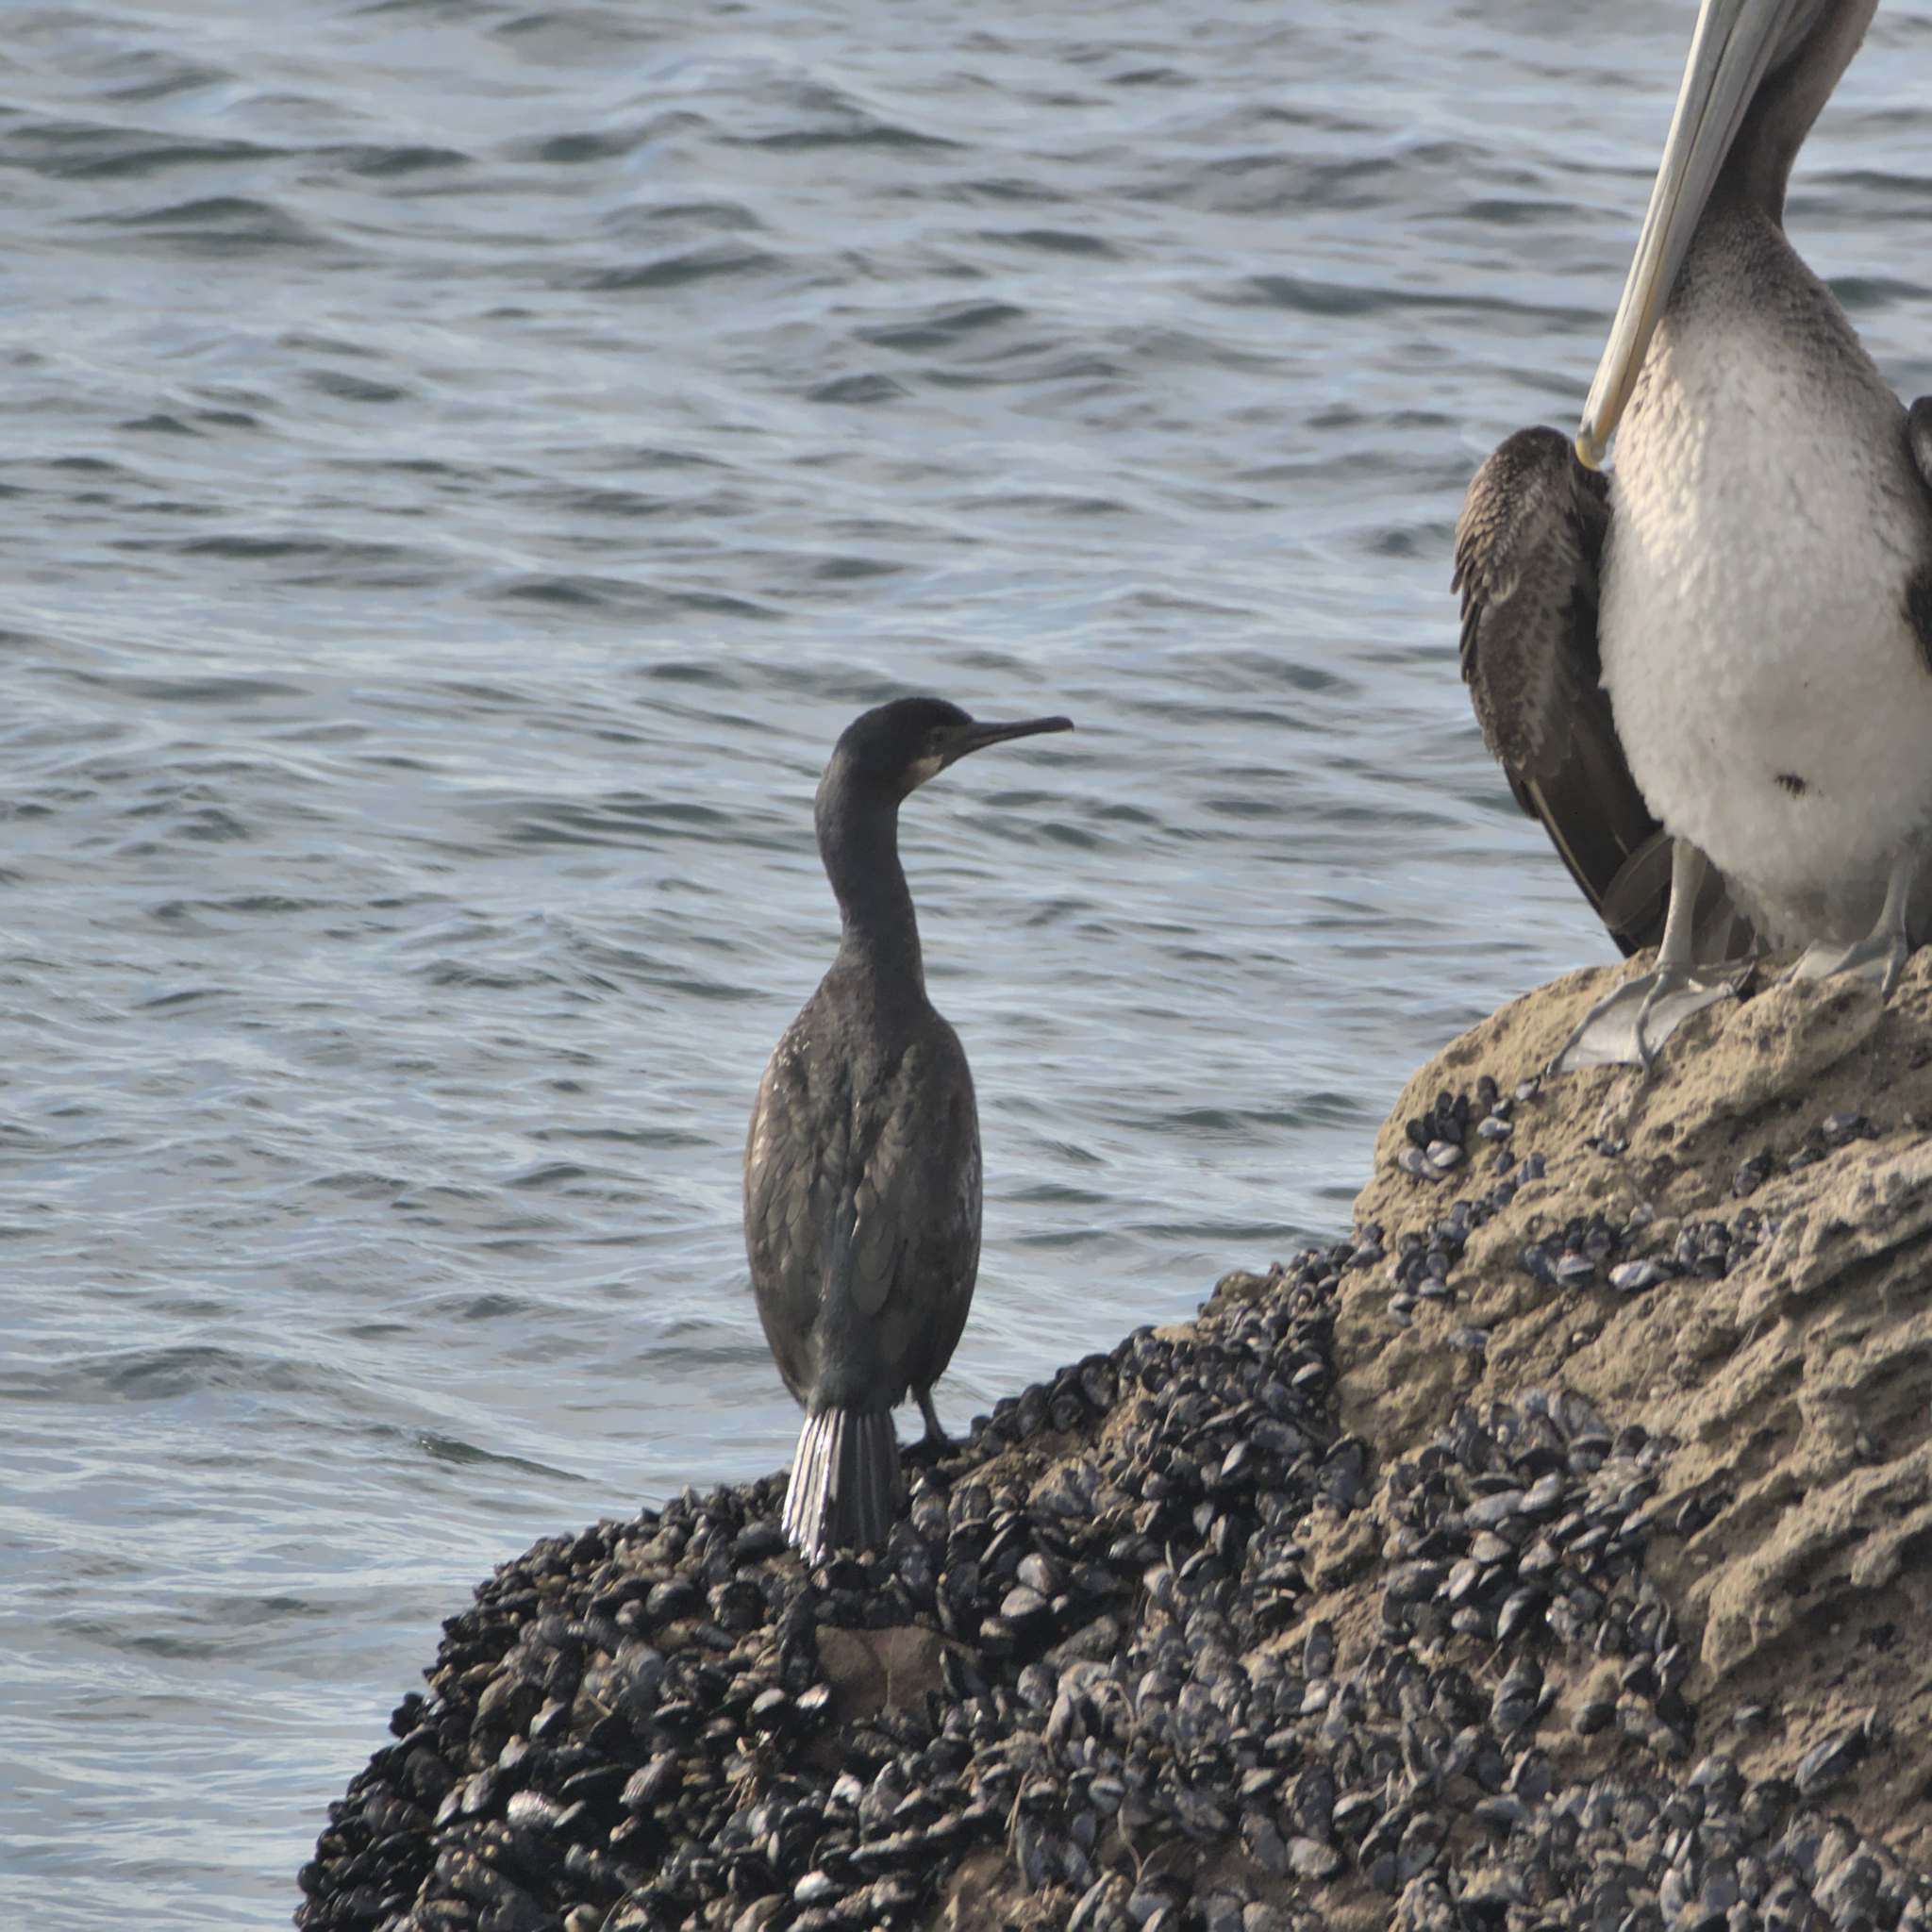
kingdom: Animalia
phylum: Chordata
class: Aves
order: Suliformes
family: Phalacrocoracidae
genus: Urile
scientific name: Urile penicillatus
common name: Brandt's cormorant
